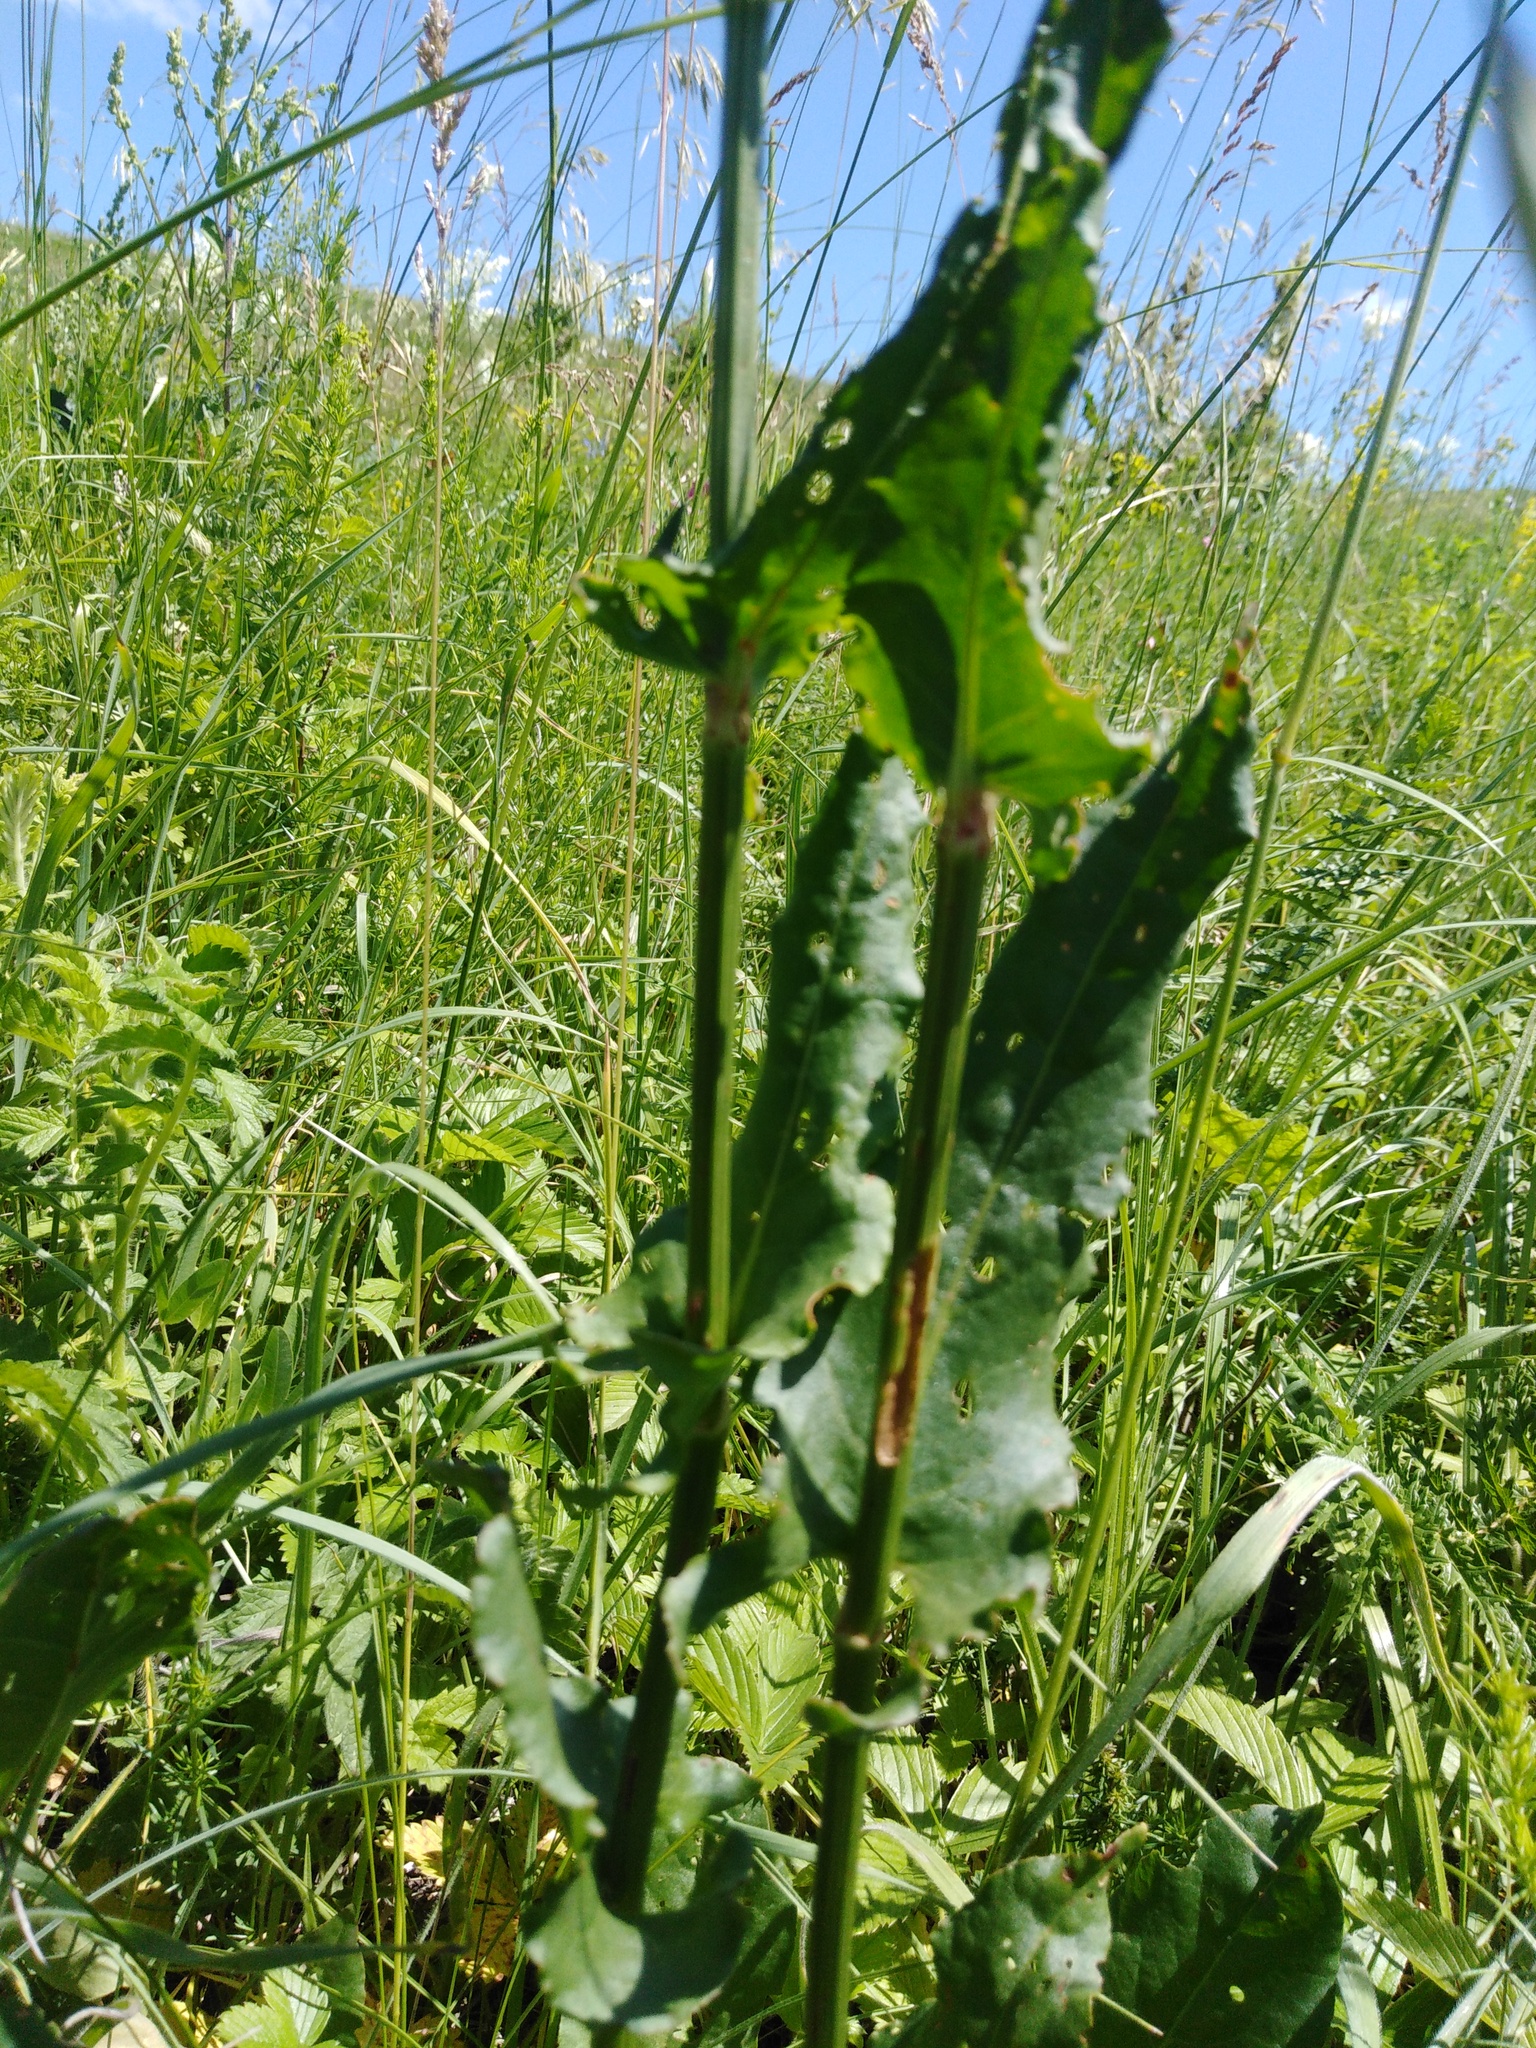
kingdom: Plantae
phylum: Tracheophyta
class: Magnoliopsida
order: Caryophyllales
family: Polygonaceae
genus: Rumex
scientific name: Rumex thyrsiflorus
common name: Garden sorrel
